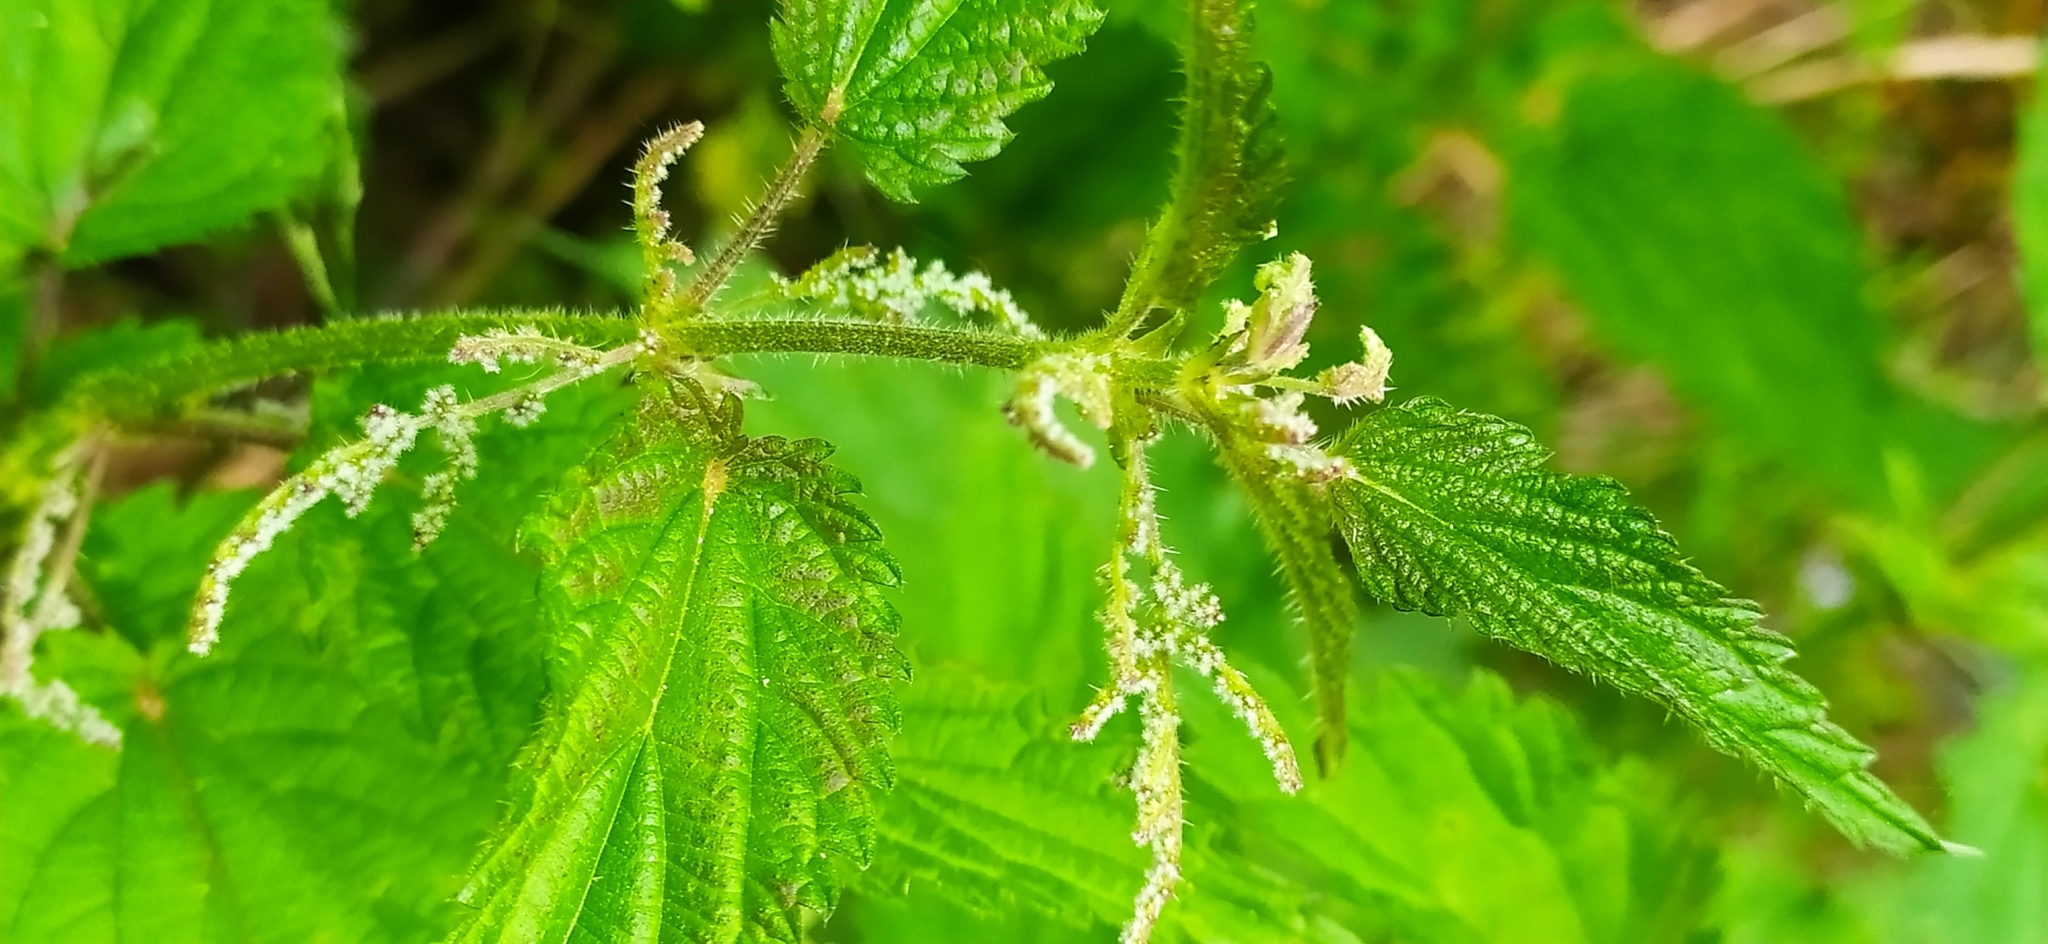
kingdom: Plantae
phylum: Tracheophyta
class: Magnoliopsida
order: Rosales
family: Urticaceae
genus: Urtica
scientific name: Urtica dioica
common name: Common nettle
